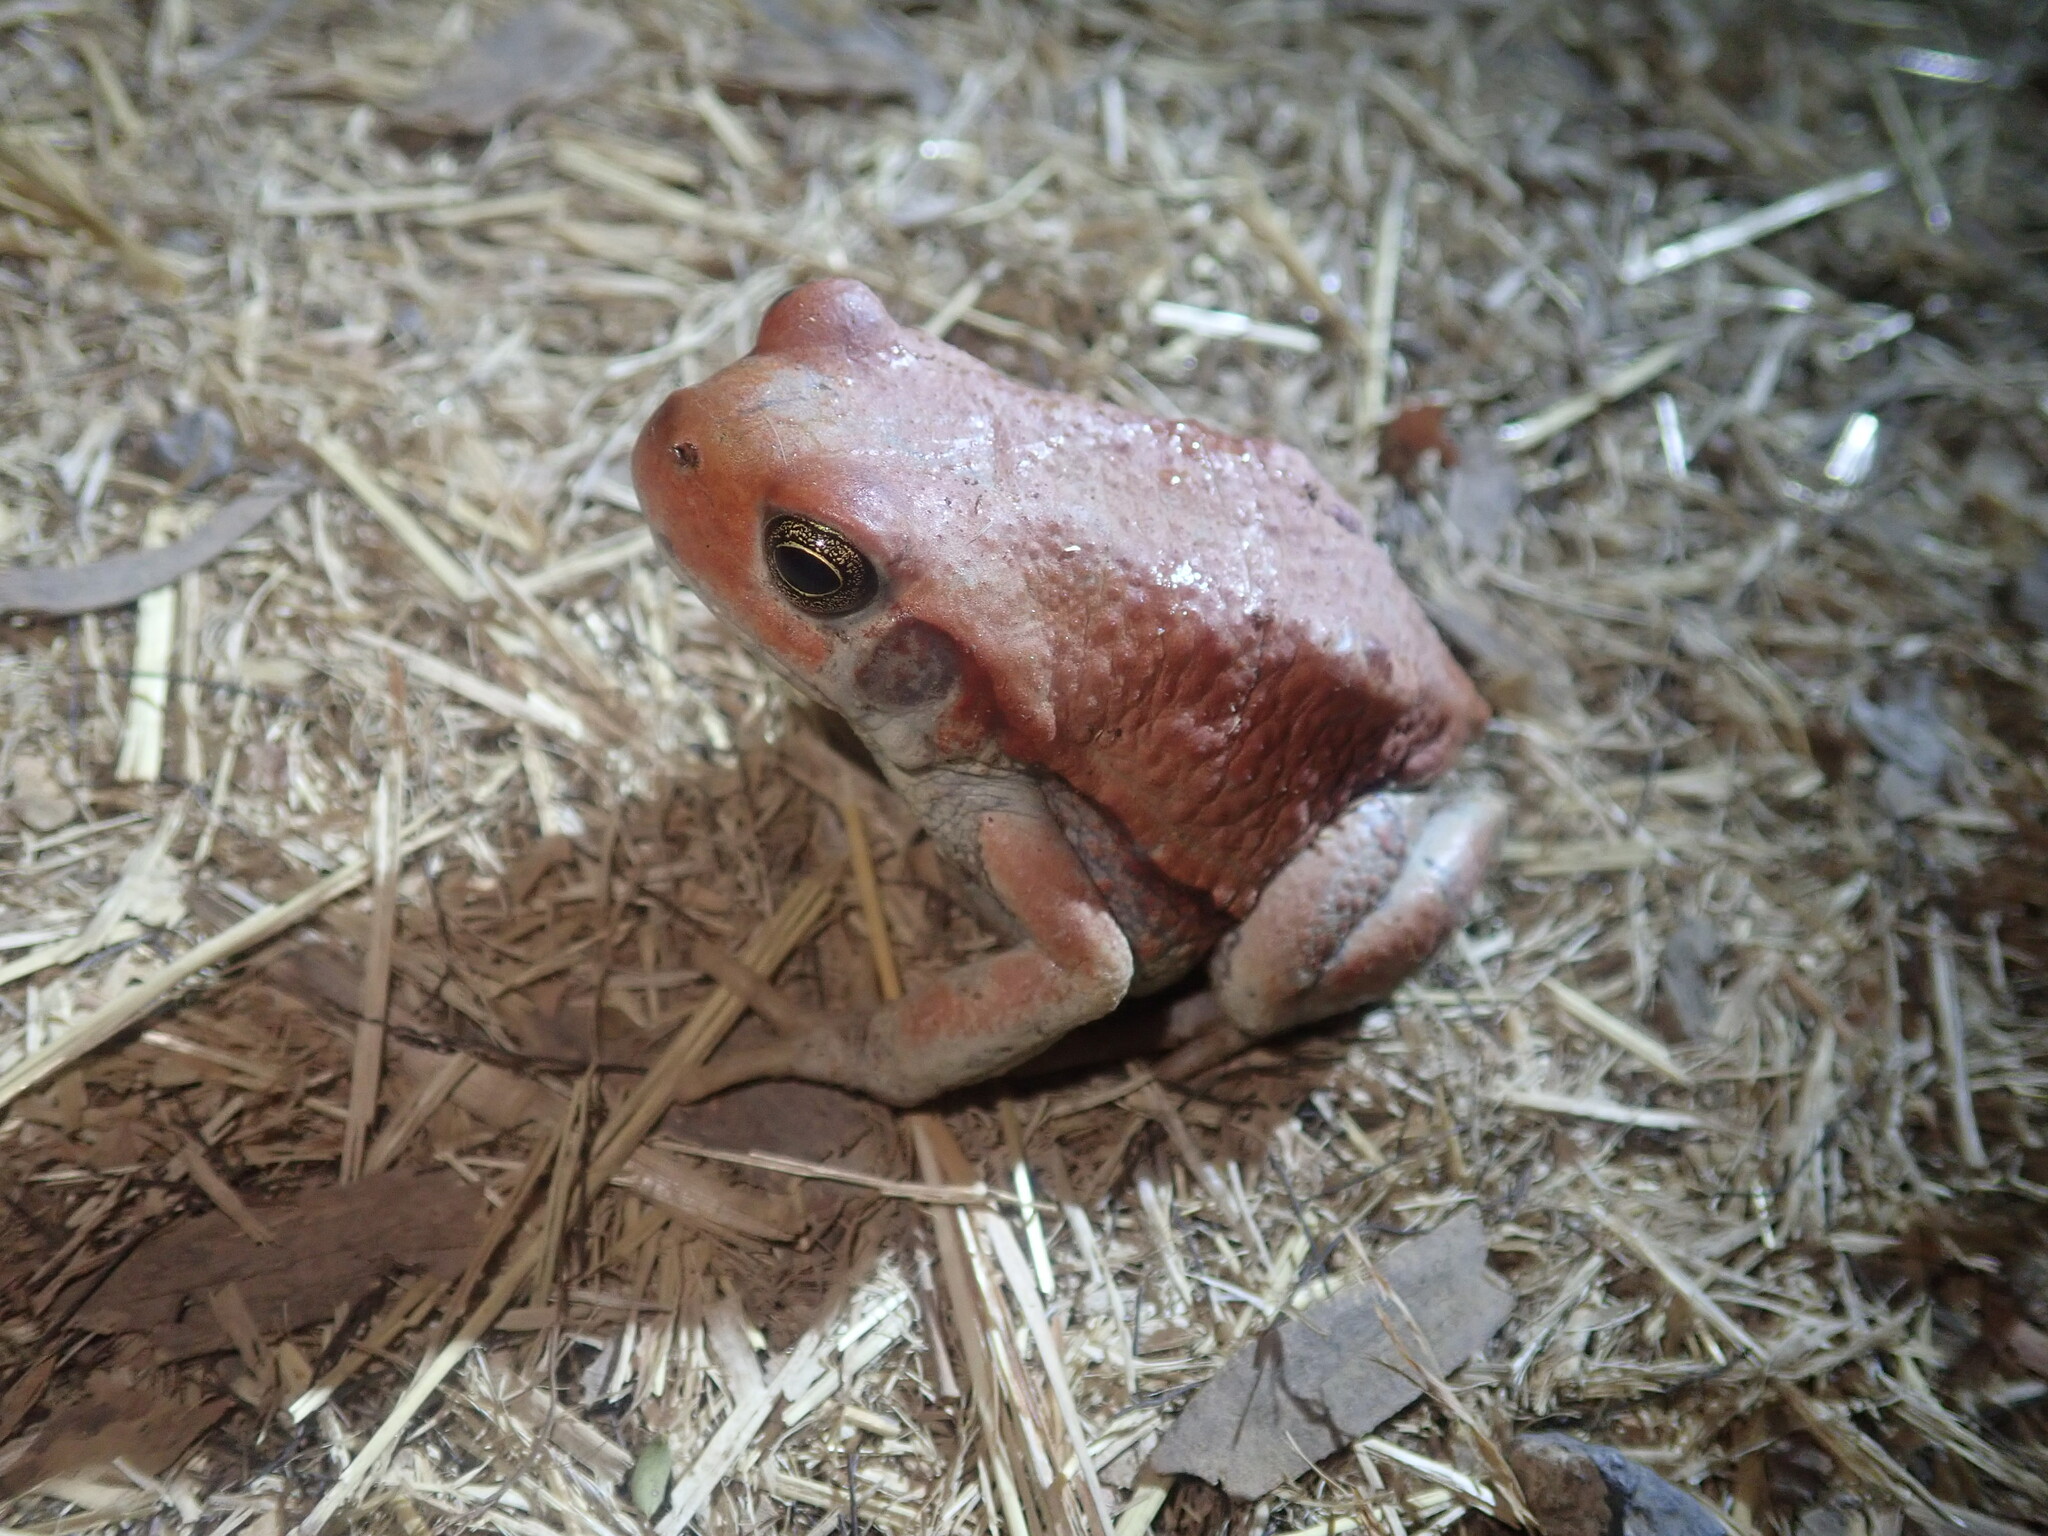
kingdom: Animalia
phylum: Chordata
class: Amphibia
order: Anura
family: Bufonidae
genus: Schismaderma
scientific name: Schismaderma carens
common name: African split-skin toad
